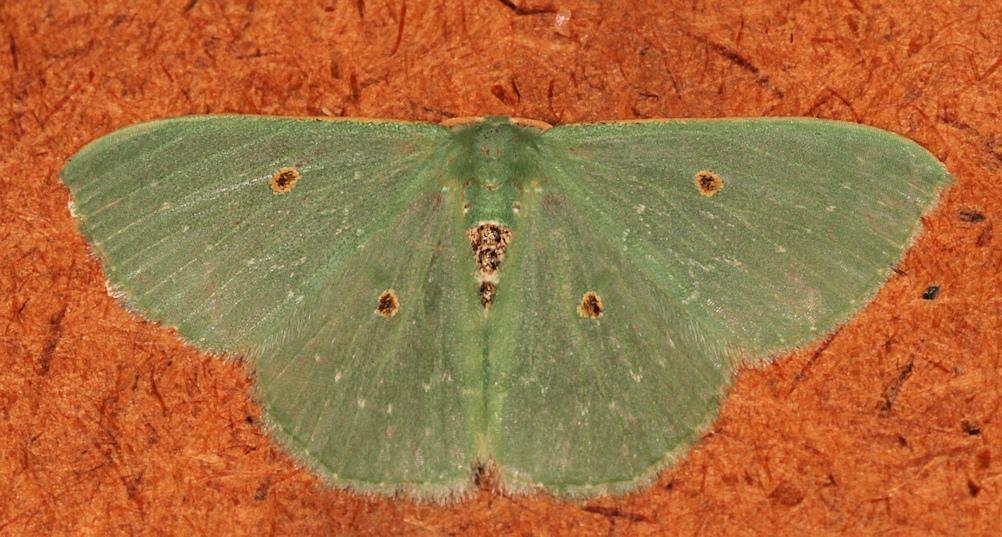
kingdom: Animalia
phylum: Arthropoda
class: Insecta
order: Lepidoptera
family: Geometridae
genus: Lophostola
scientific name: Lophostola atridisca
